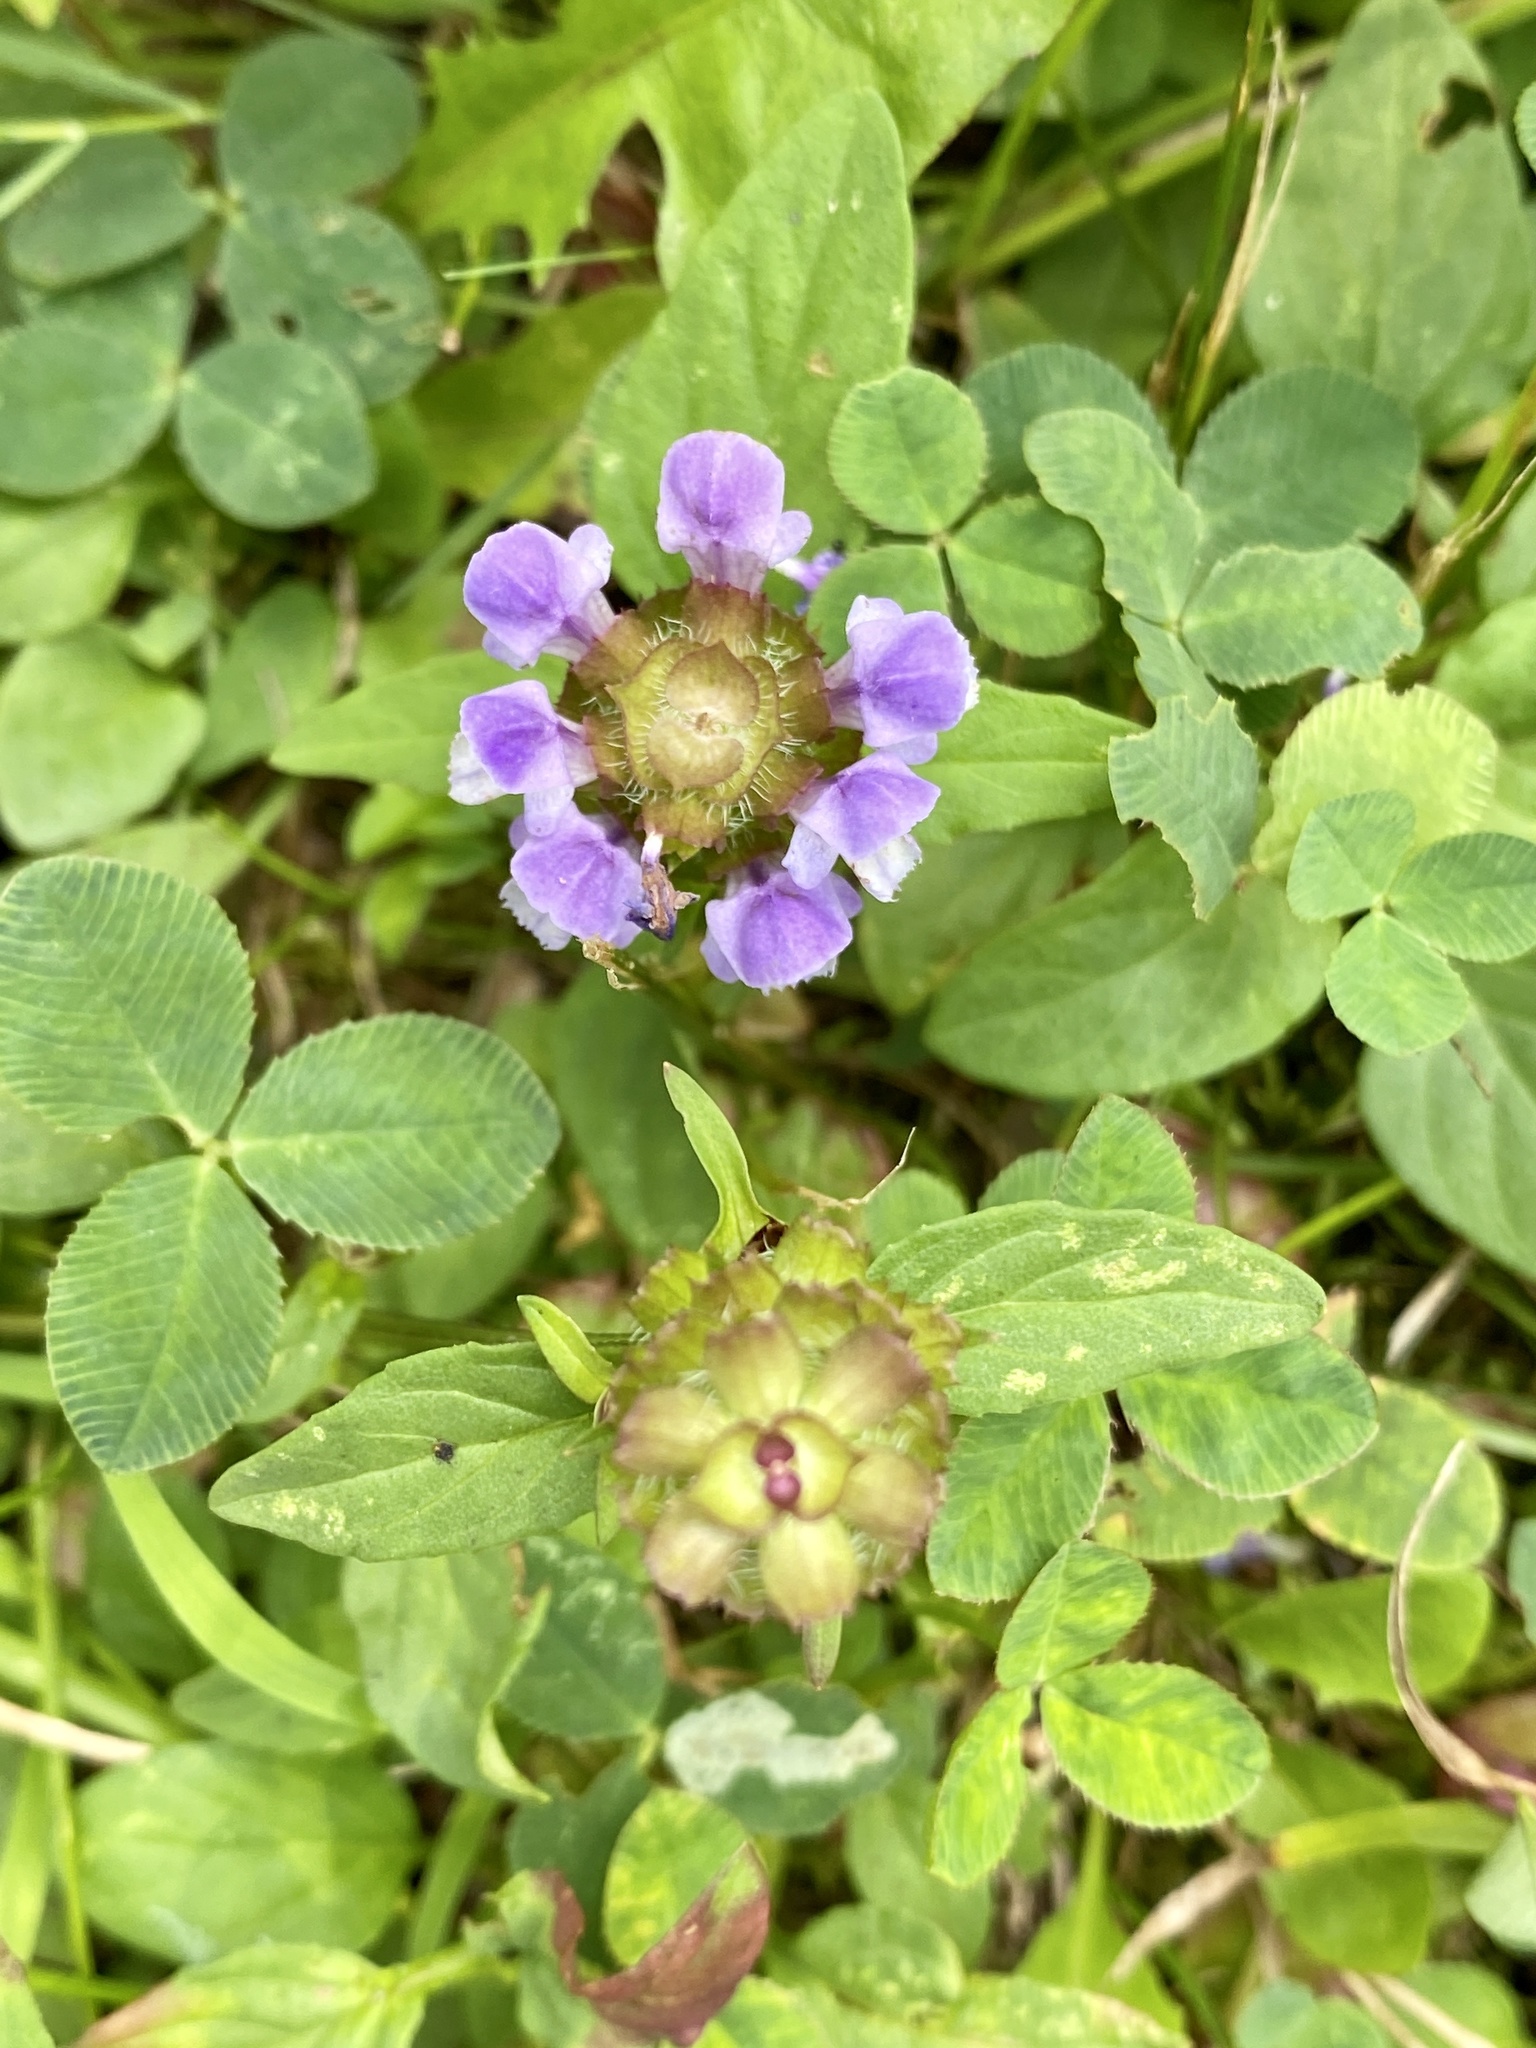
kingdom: Plantae
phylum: Tracheophyta
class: Magnoliopsida
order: Lamiales
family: Lamiaceae
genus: Prunella
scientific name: Prunella vulgaris
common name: Heal-all
